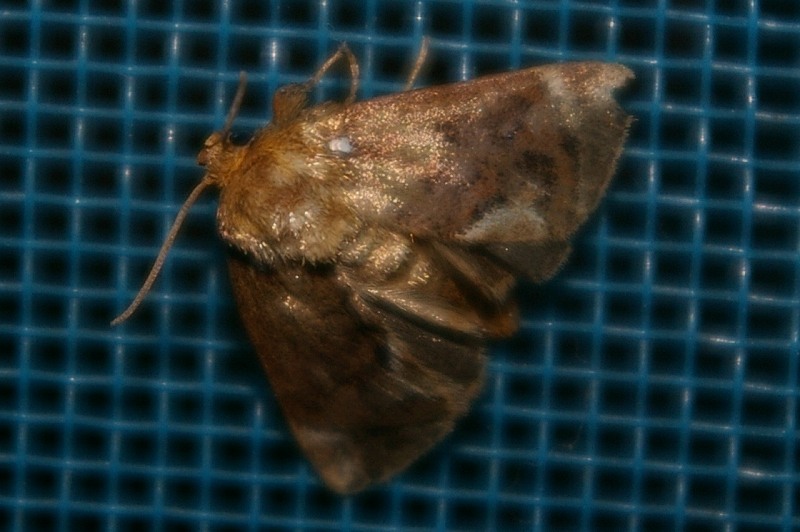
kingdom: Animalia
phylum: Arthropoda
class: Insecta
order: Lepidoptera
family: Limacodidae
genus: Austrapoda
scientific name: Austrapoda hepatica
